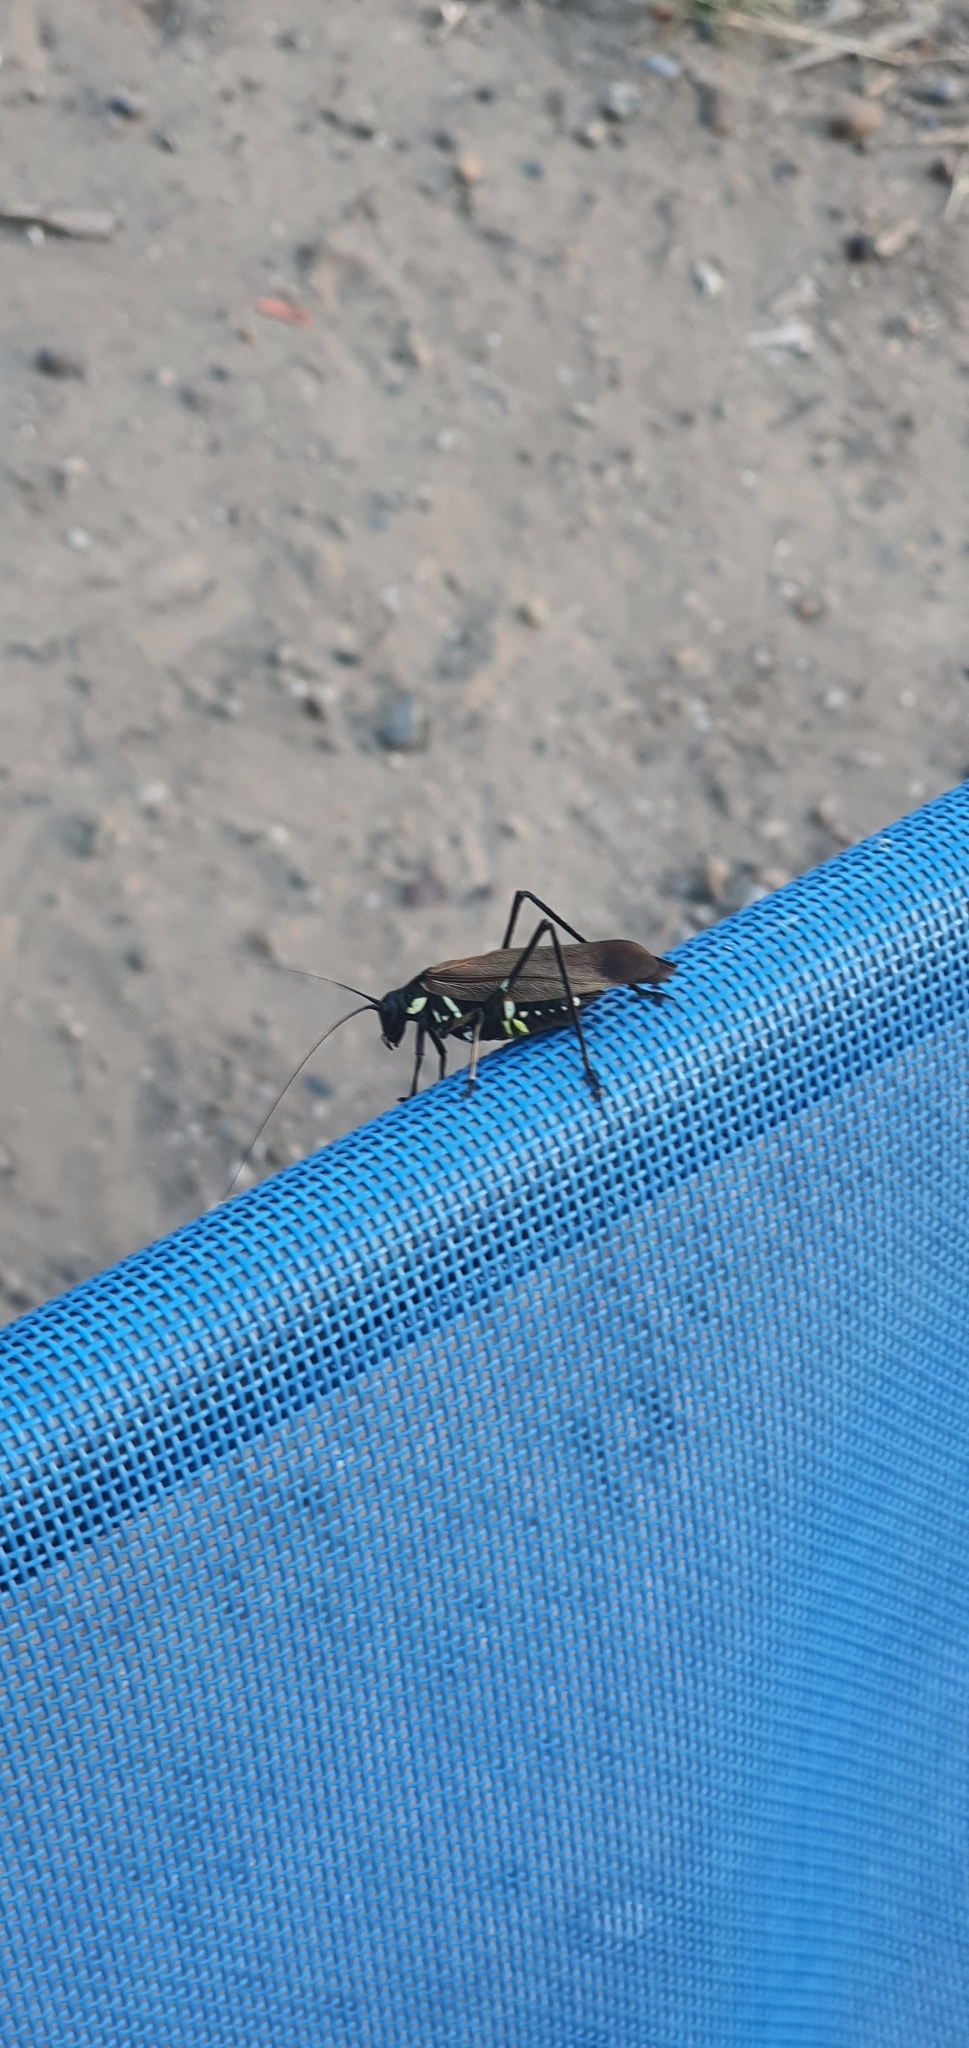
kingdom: Animalia
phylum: Arthropoda
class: Insecta
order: Orthoptera
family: Tettigoniidae
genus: Scaphura
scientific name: Scaphura elegans
